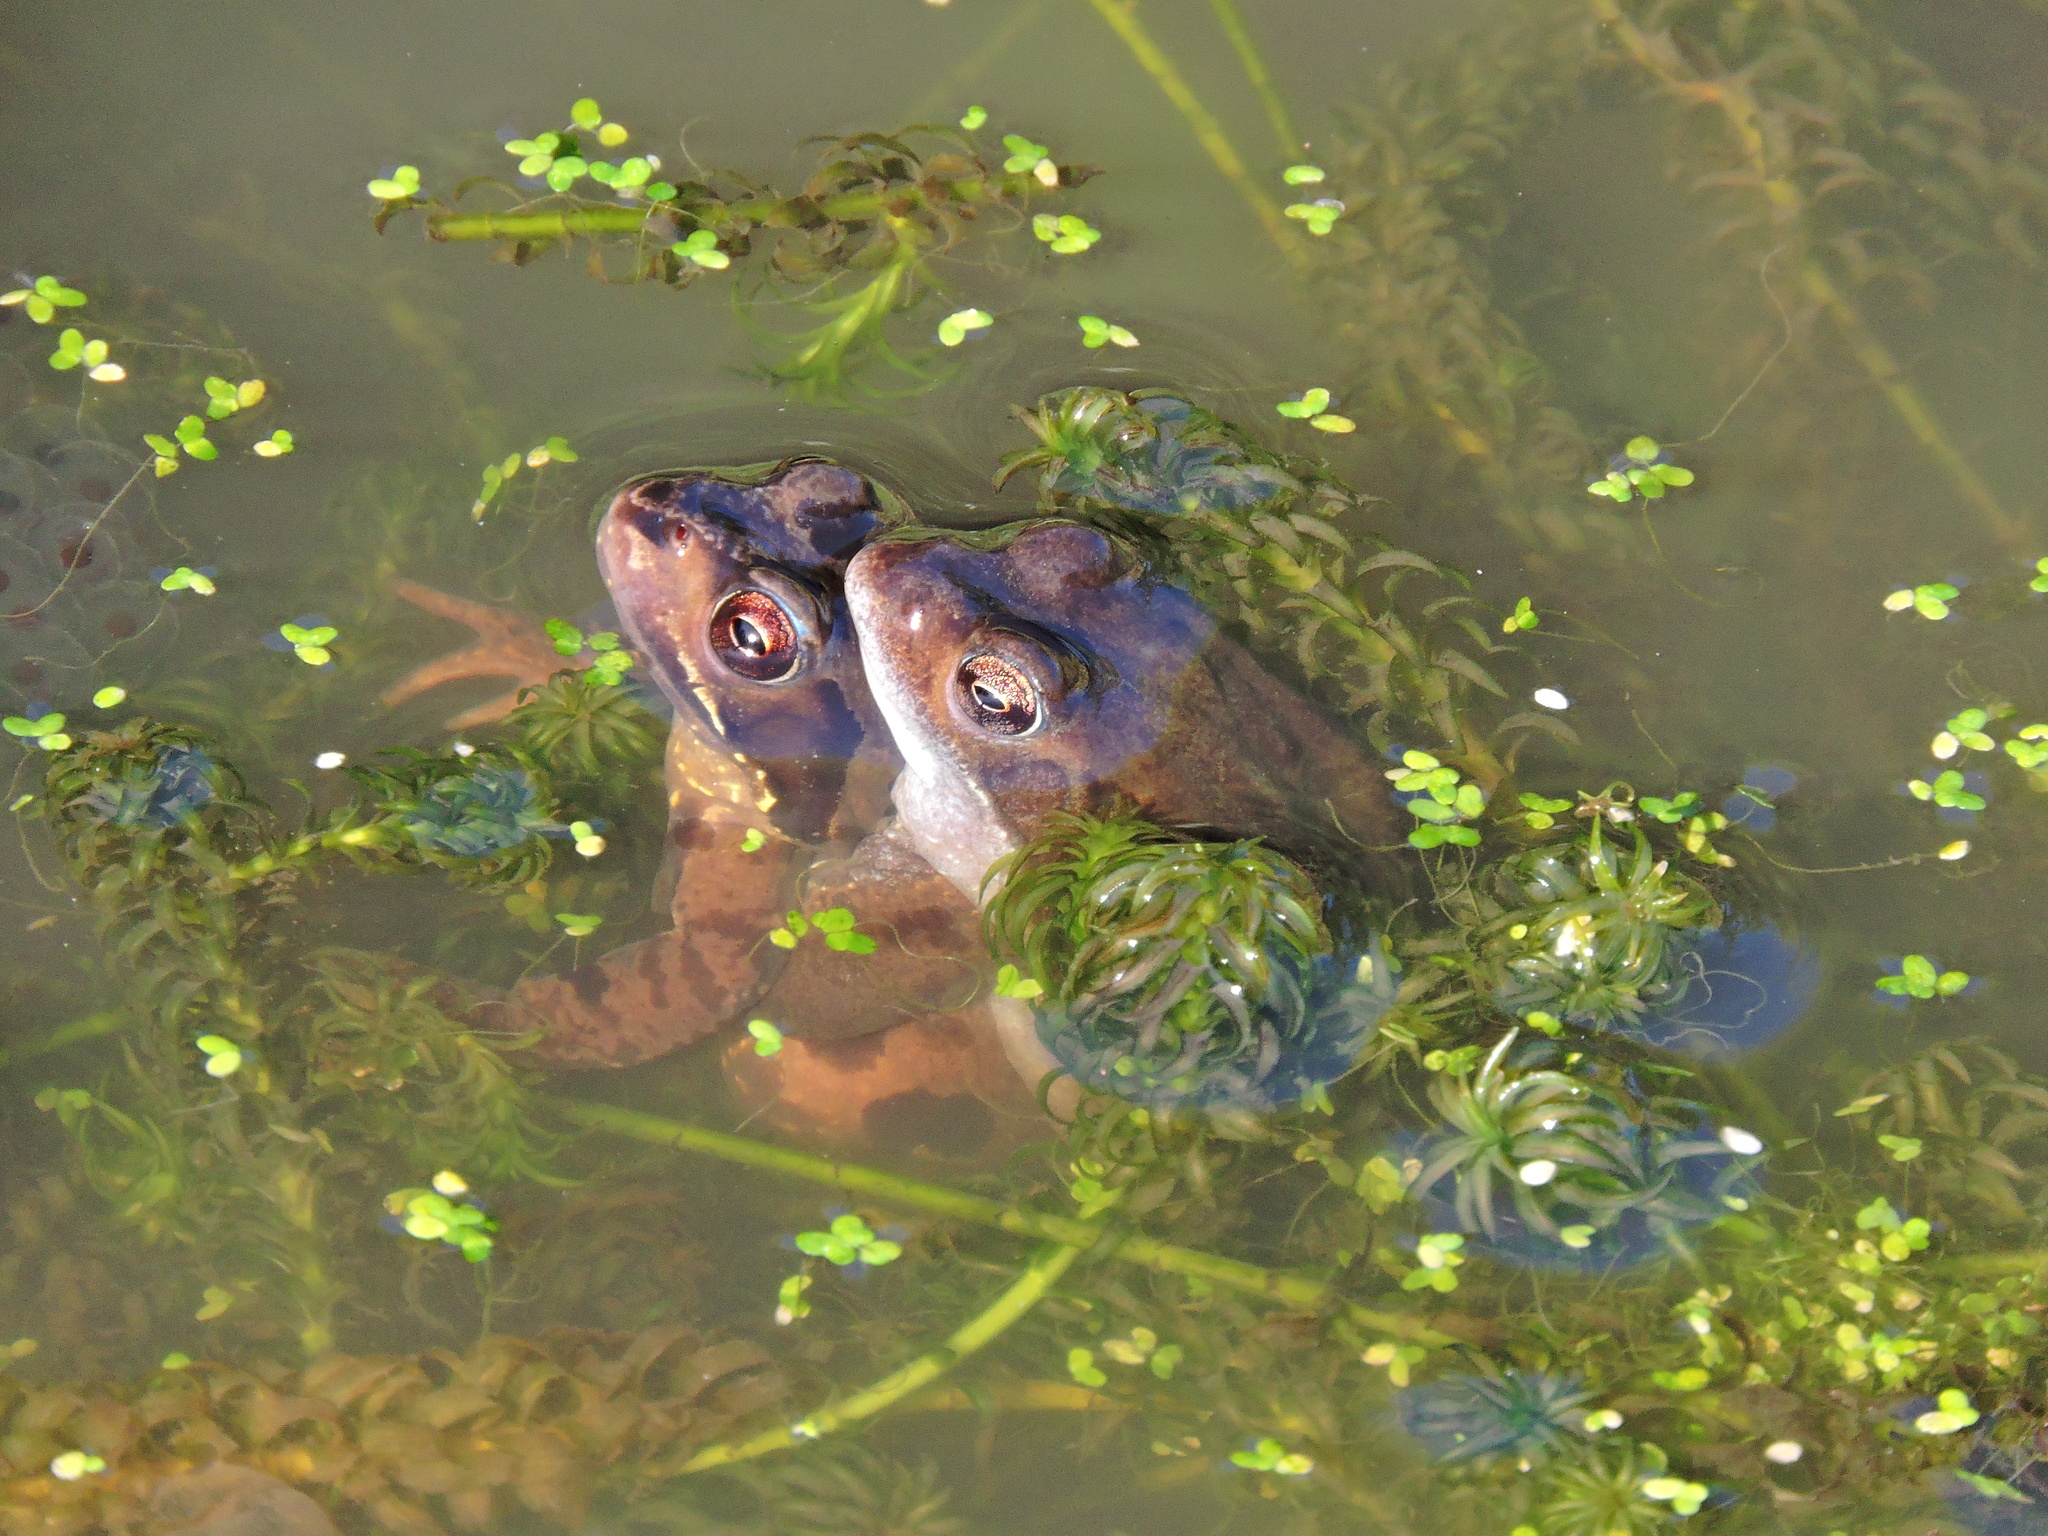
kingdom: Animalia
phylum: Chordata
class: Amphibia
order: Anura
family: Ranidae
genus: Rana
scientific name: Rana temporaria
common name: Common frog
